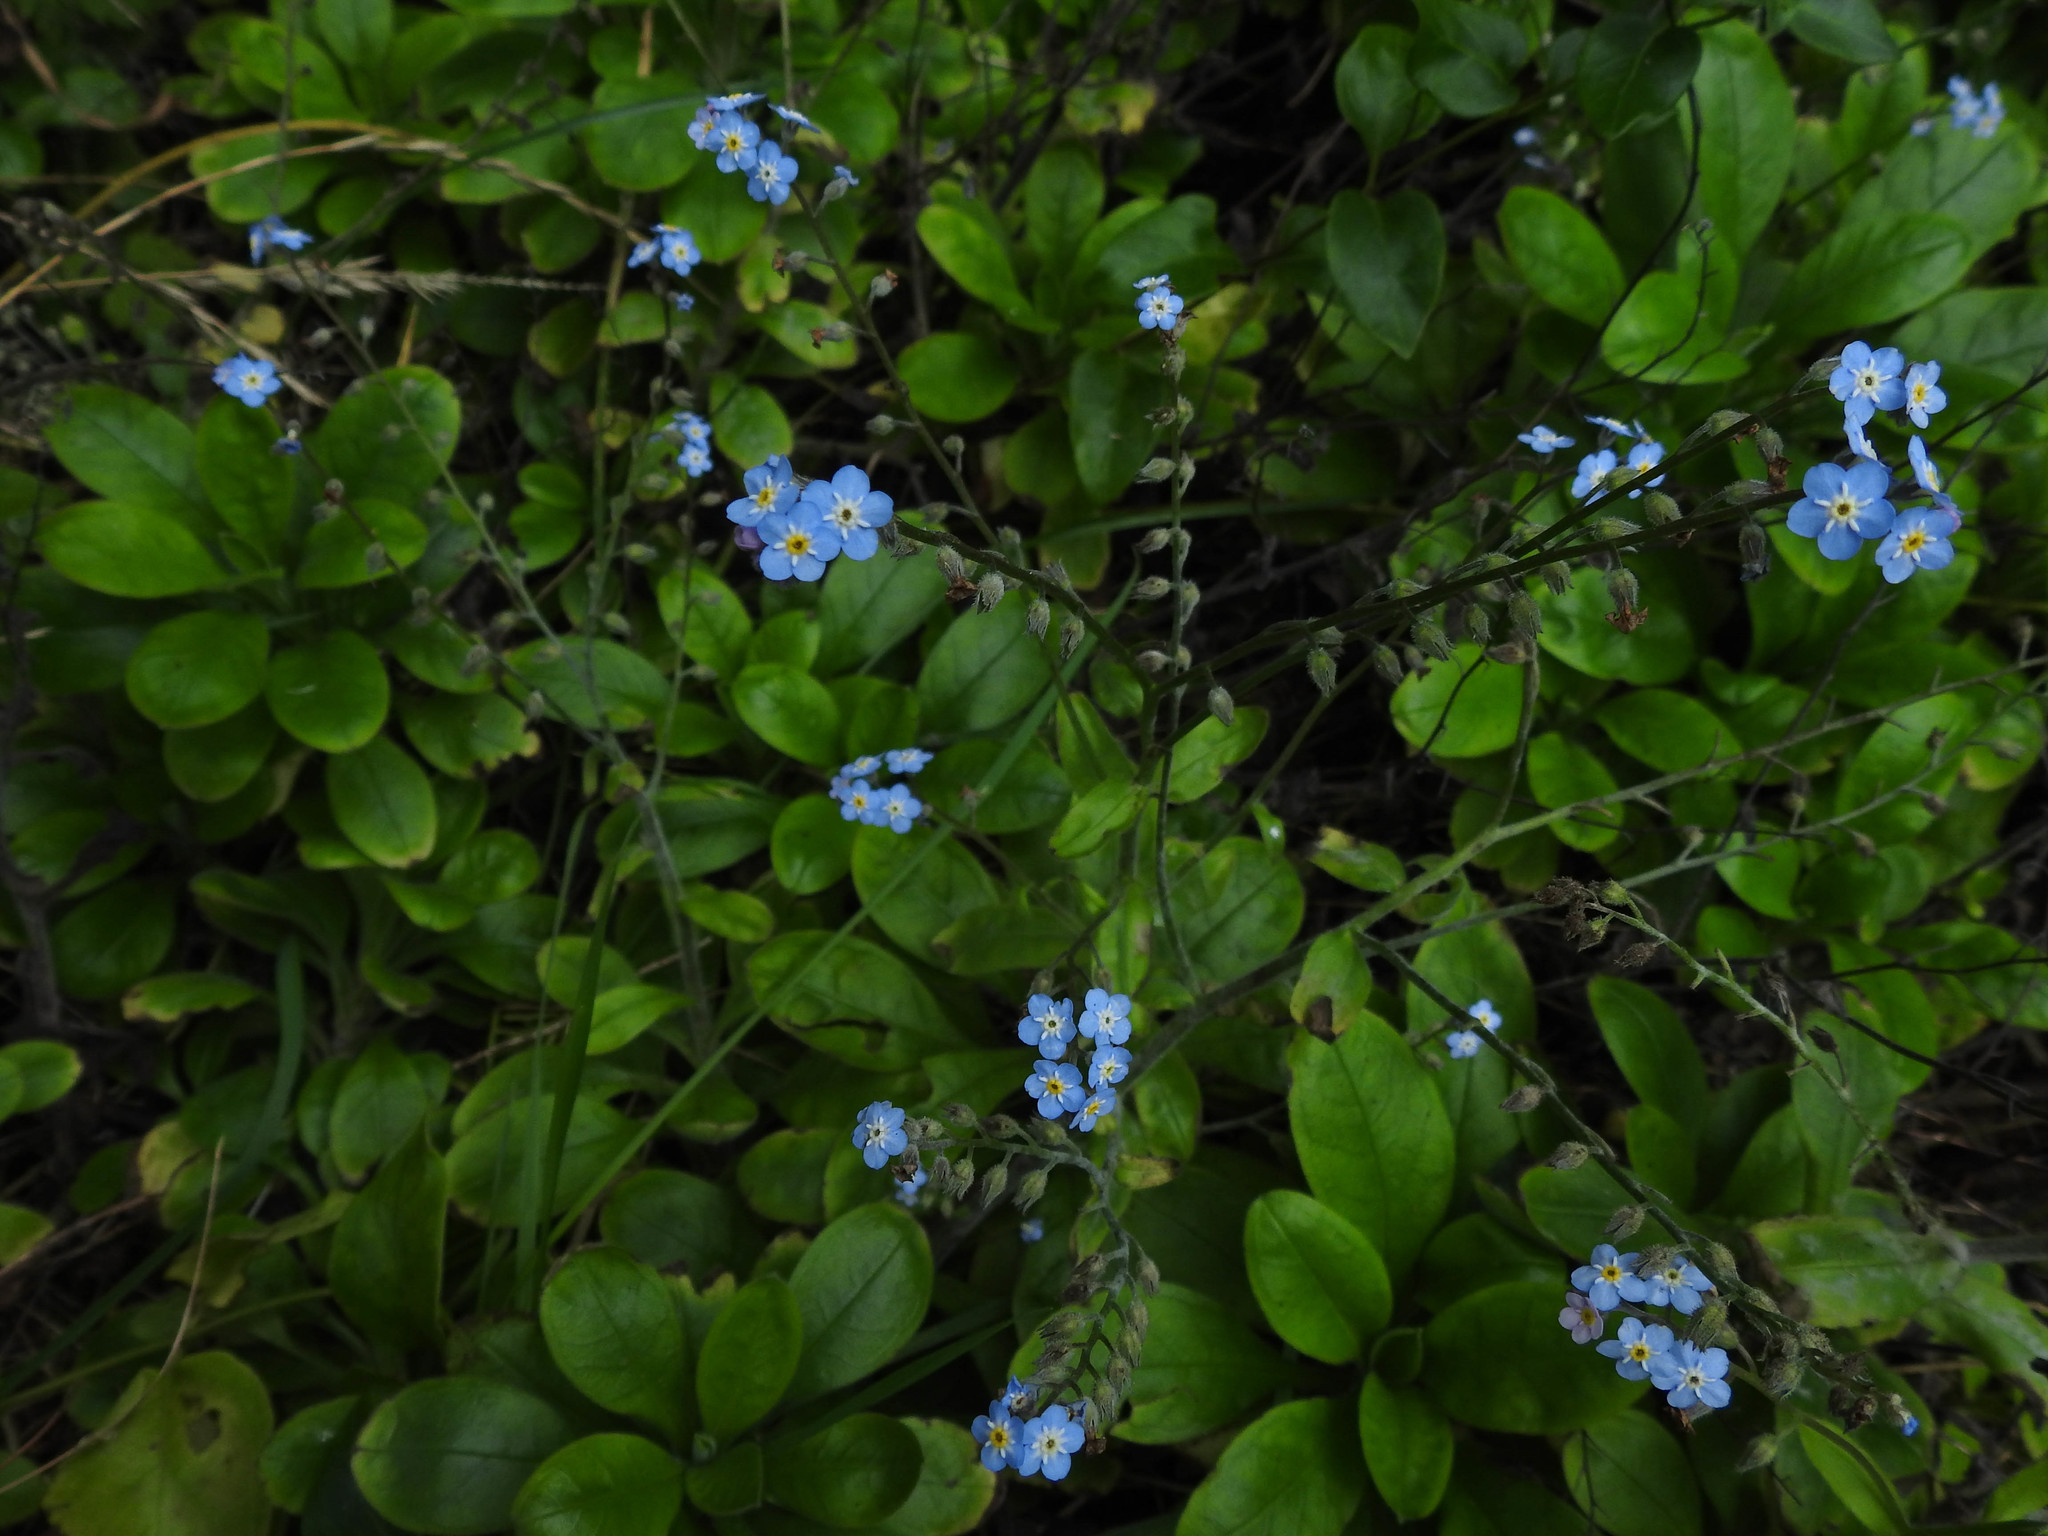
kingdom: Plantae
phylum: Tracheophyta
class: Magnoliopsida
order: Boraginales
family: Boraginaceae
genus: Myosotis
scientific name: Myosotis sylvatica
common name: Wood forget-me-not
